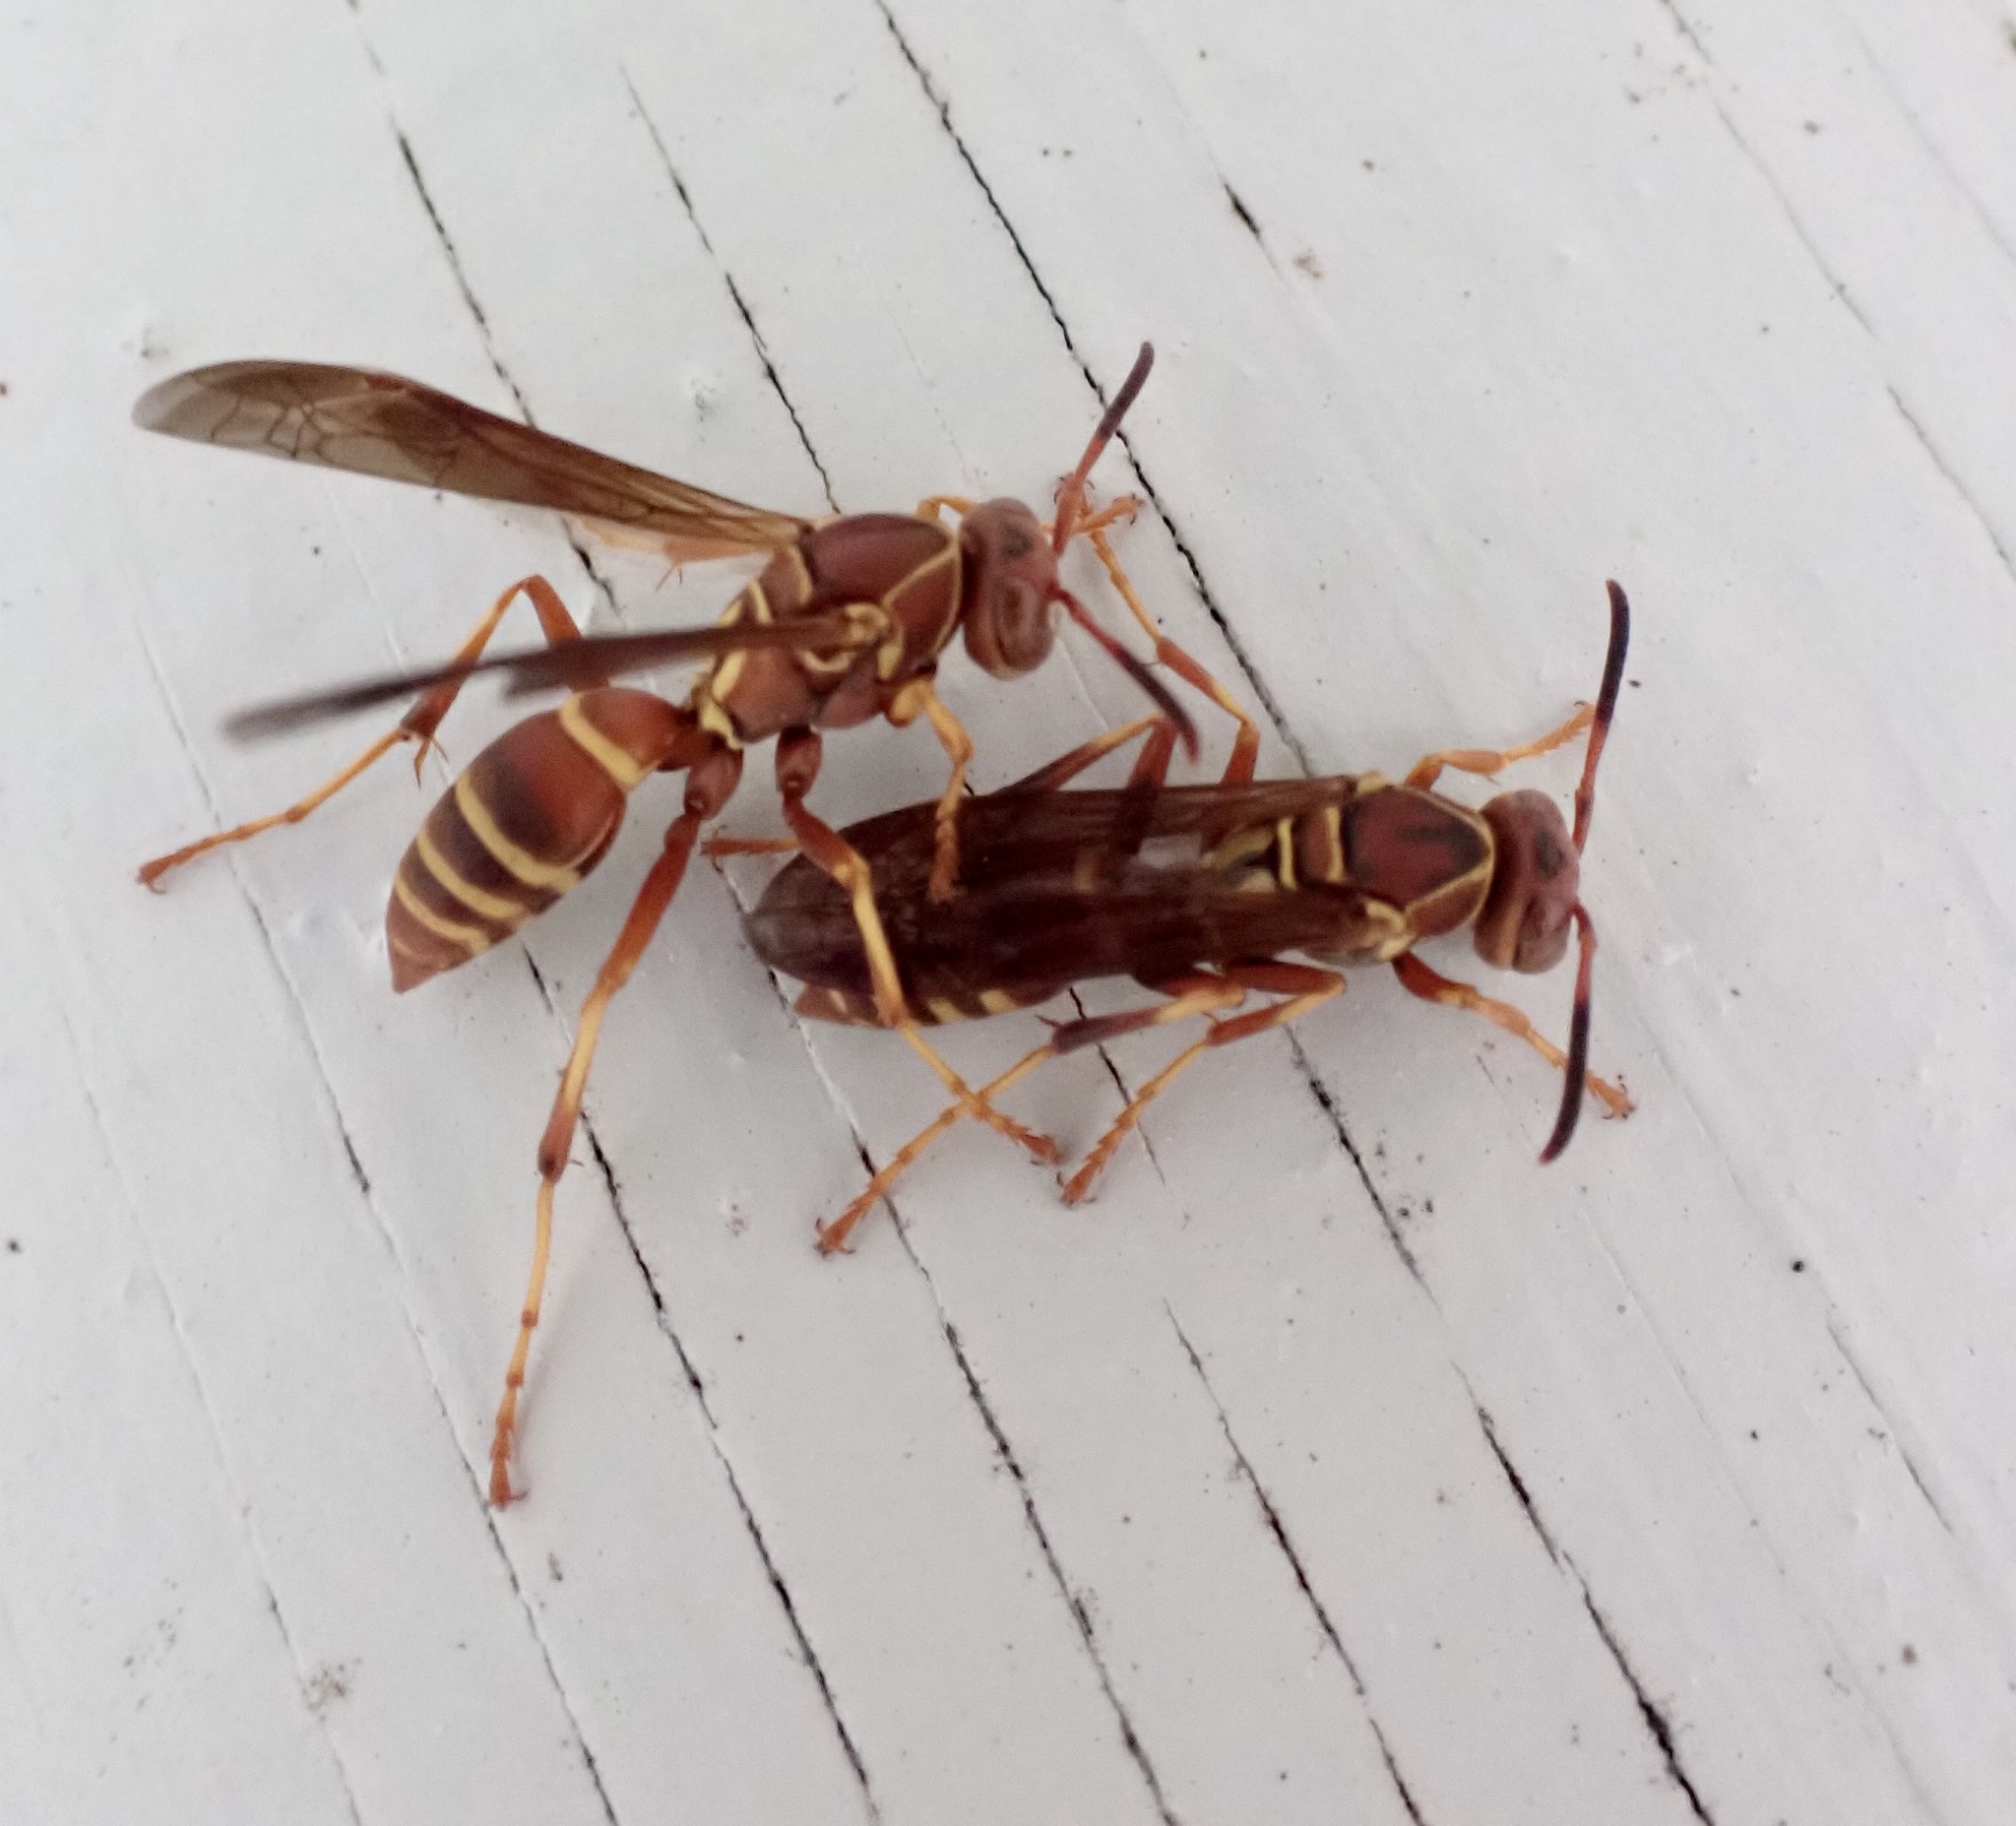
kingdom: Animalia
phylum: Arthropoda
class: Insecta
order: Hymenoptera
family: Eumenidae
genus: Polistes
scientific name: Polistes dorsalis
